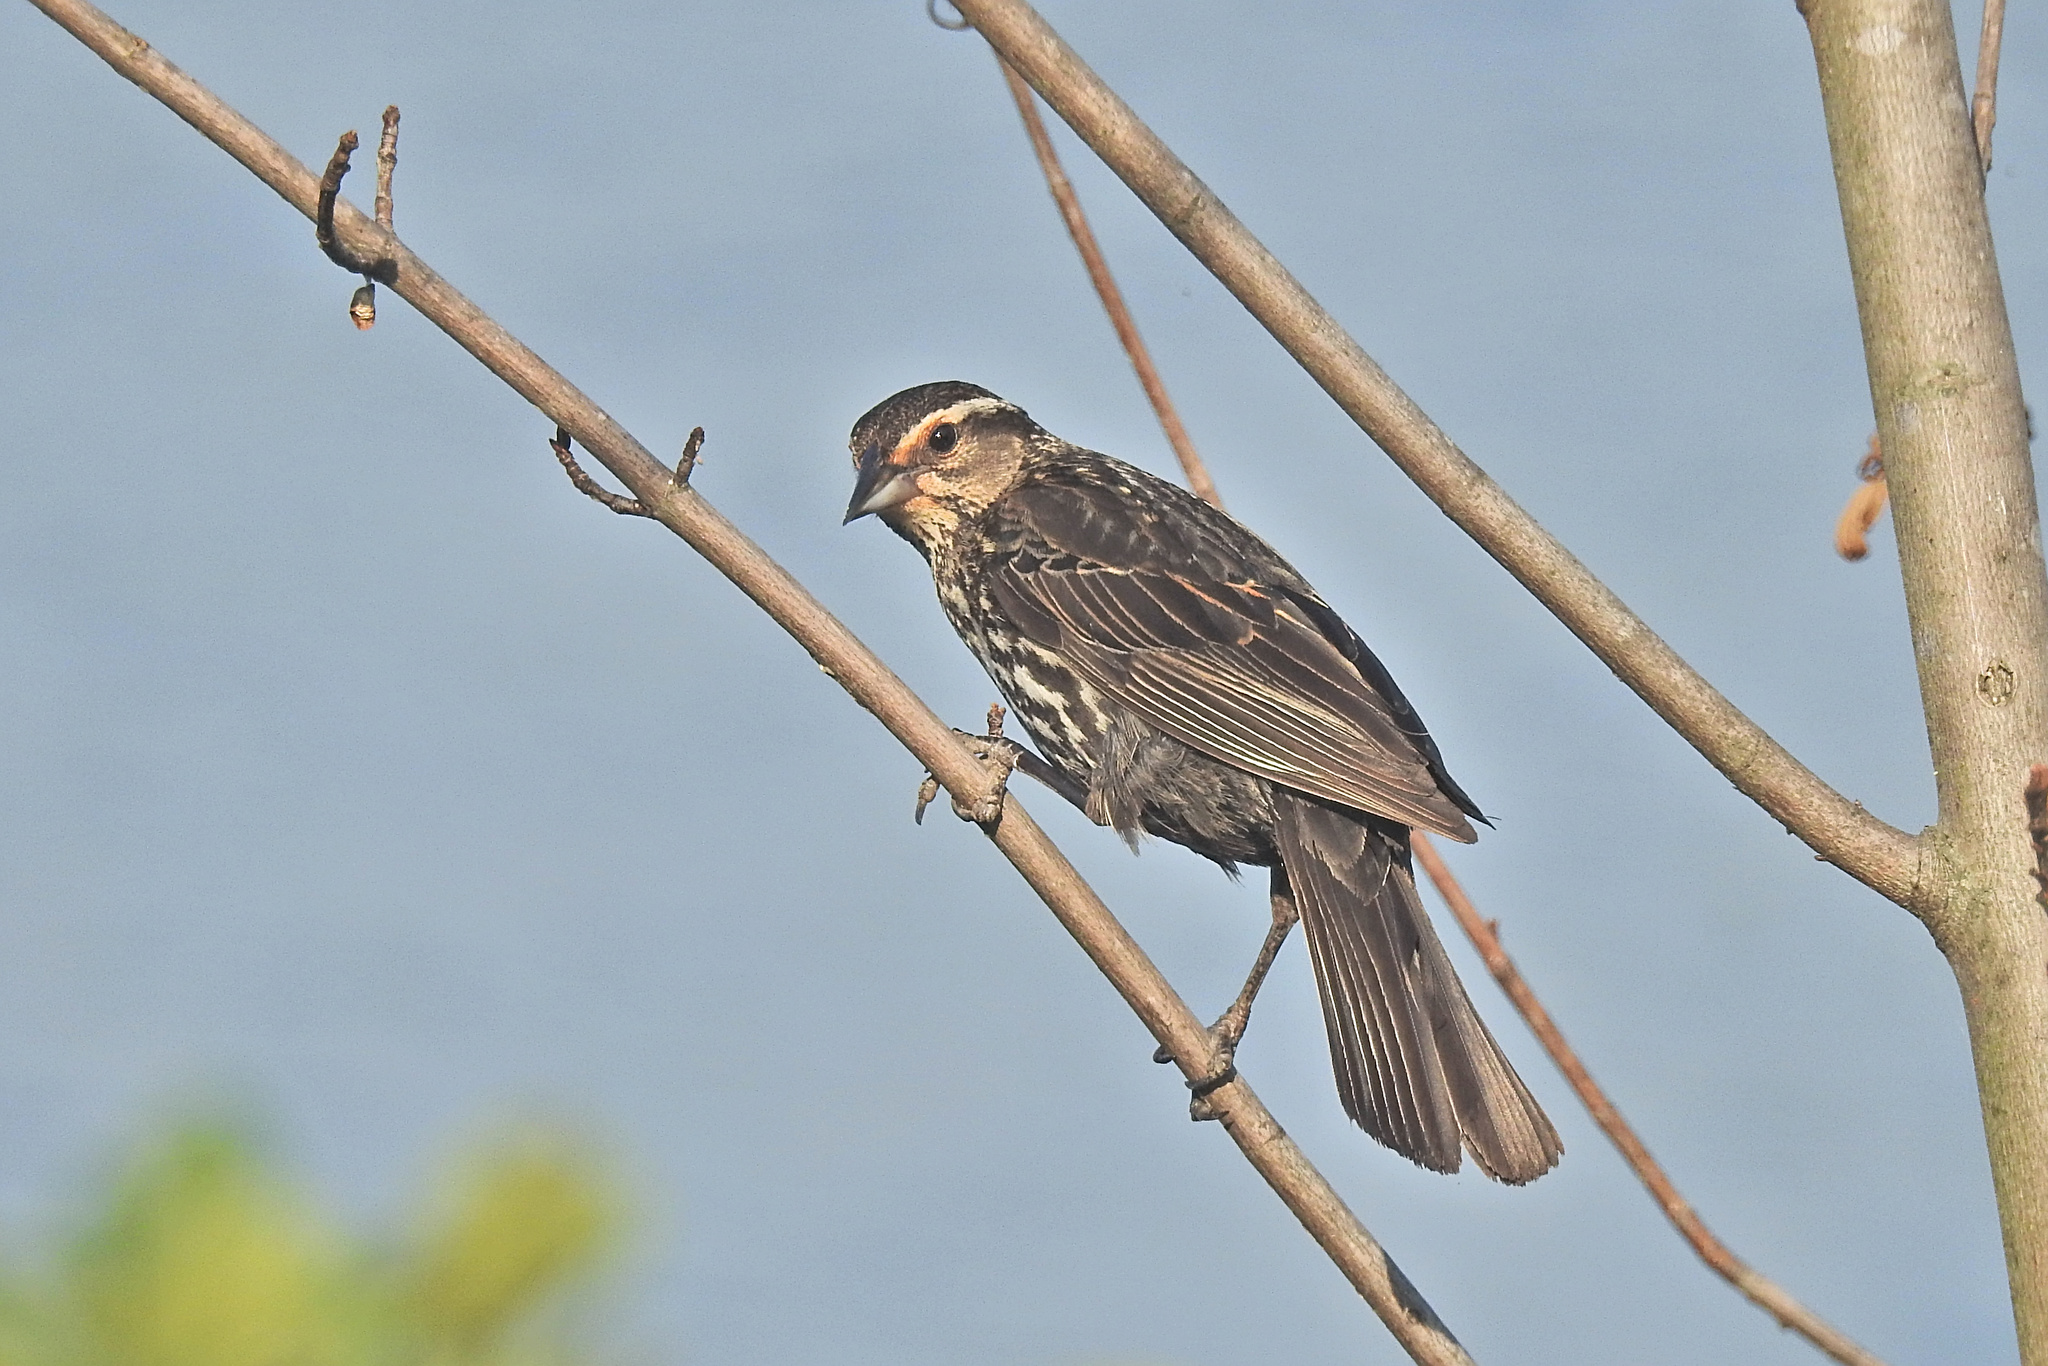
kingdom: Animalia
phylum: Chordata
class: Aves
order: Passeriformes
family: Icteridae
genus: Agelaius
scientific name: Agelaius phoeniceus
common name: Red-winged blackbird
